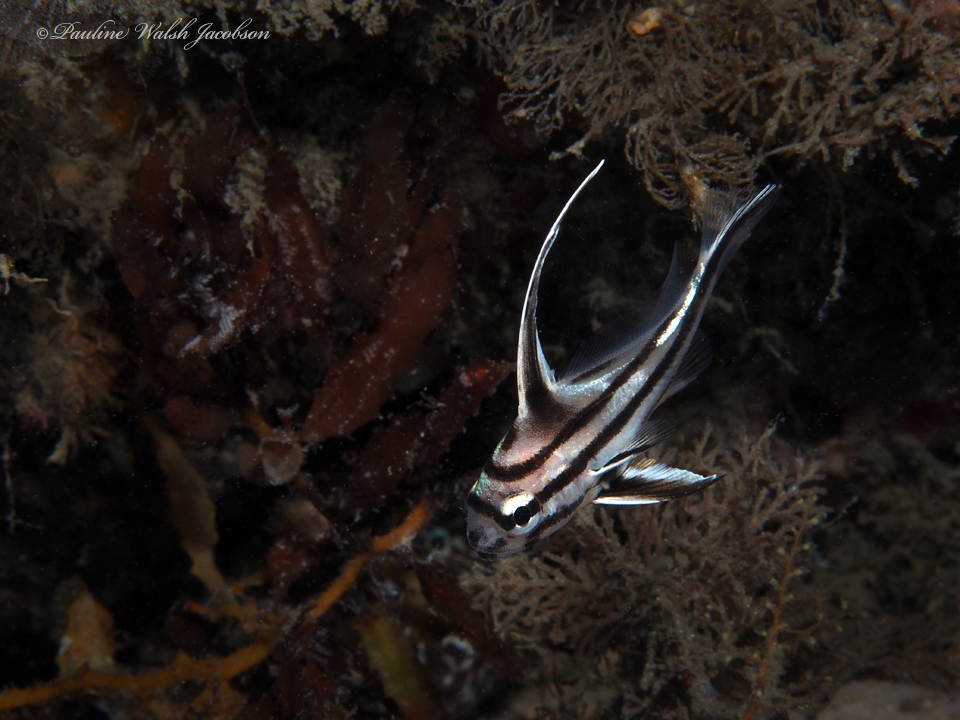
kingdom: Animalia
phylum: Chordata
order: Perciformes
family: Sciaenidae
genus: Pareques
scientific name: Pareques acuminatus
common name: High-hat
